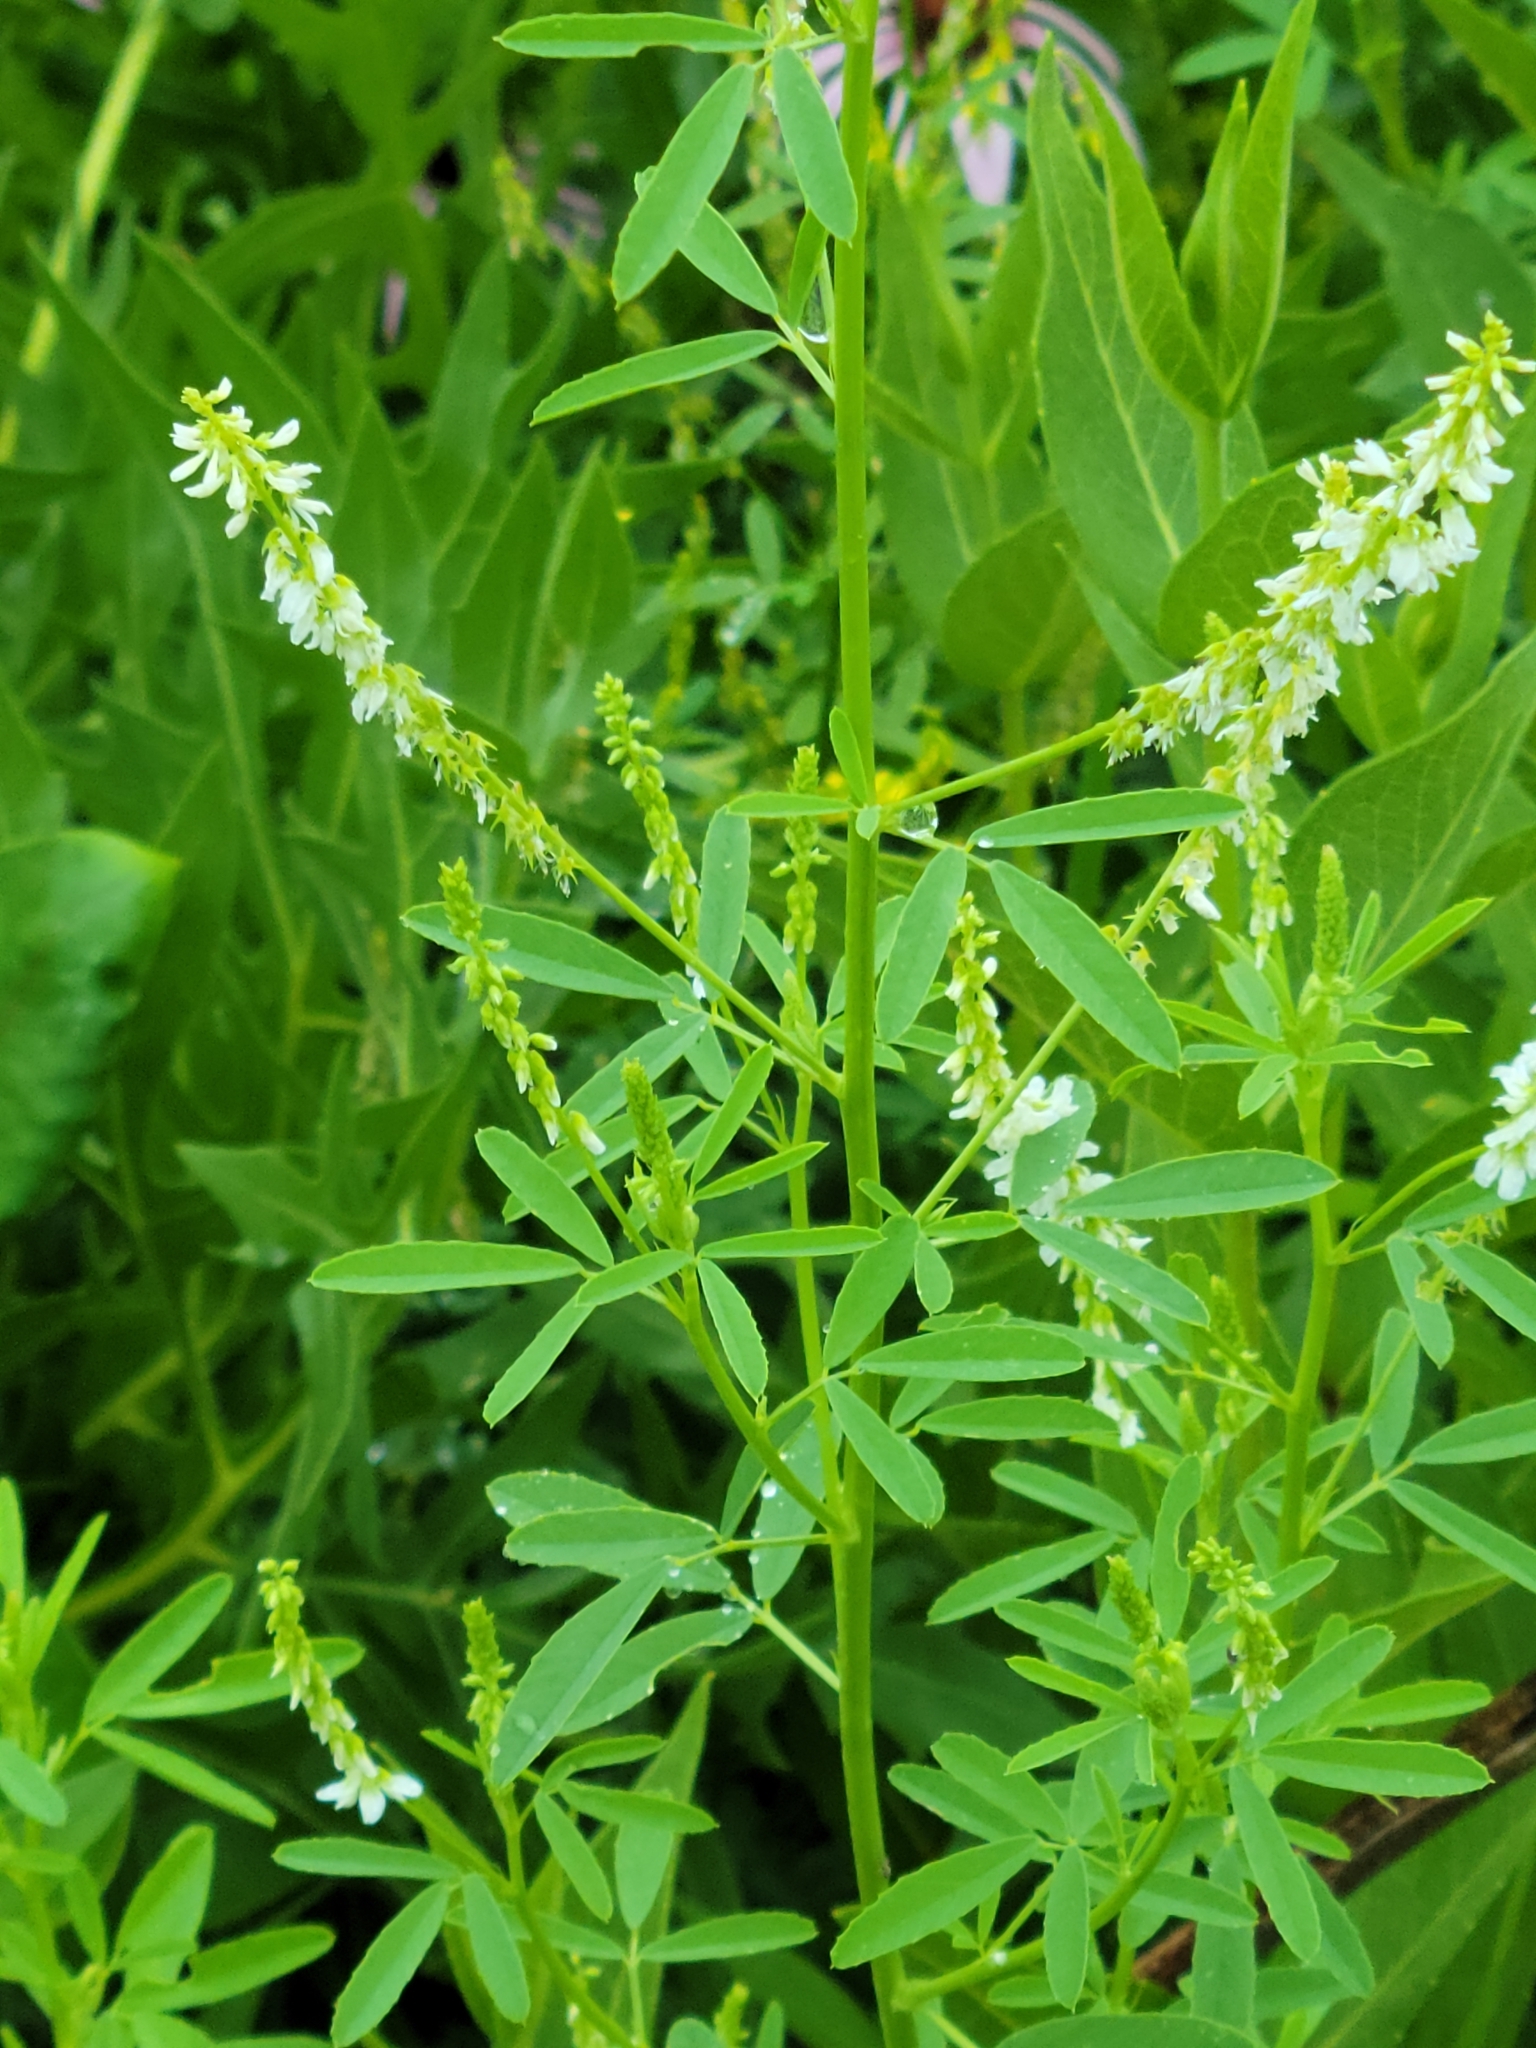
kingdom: Plantae
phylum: Tracheophyta
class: Magnoliopsida
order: Fabales
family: Fabaceae
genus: Melilotus
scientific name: Melilotus albus
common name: White melilot
